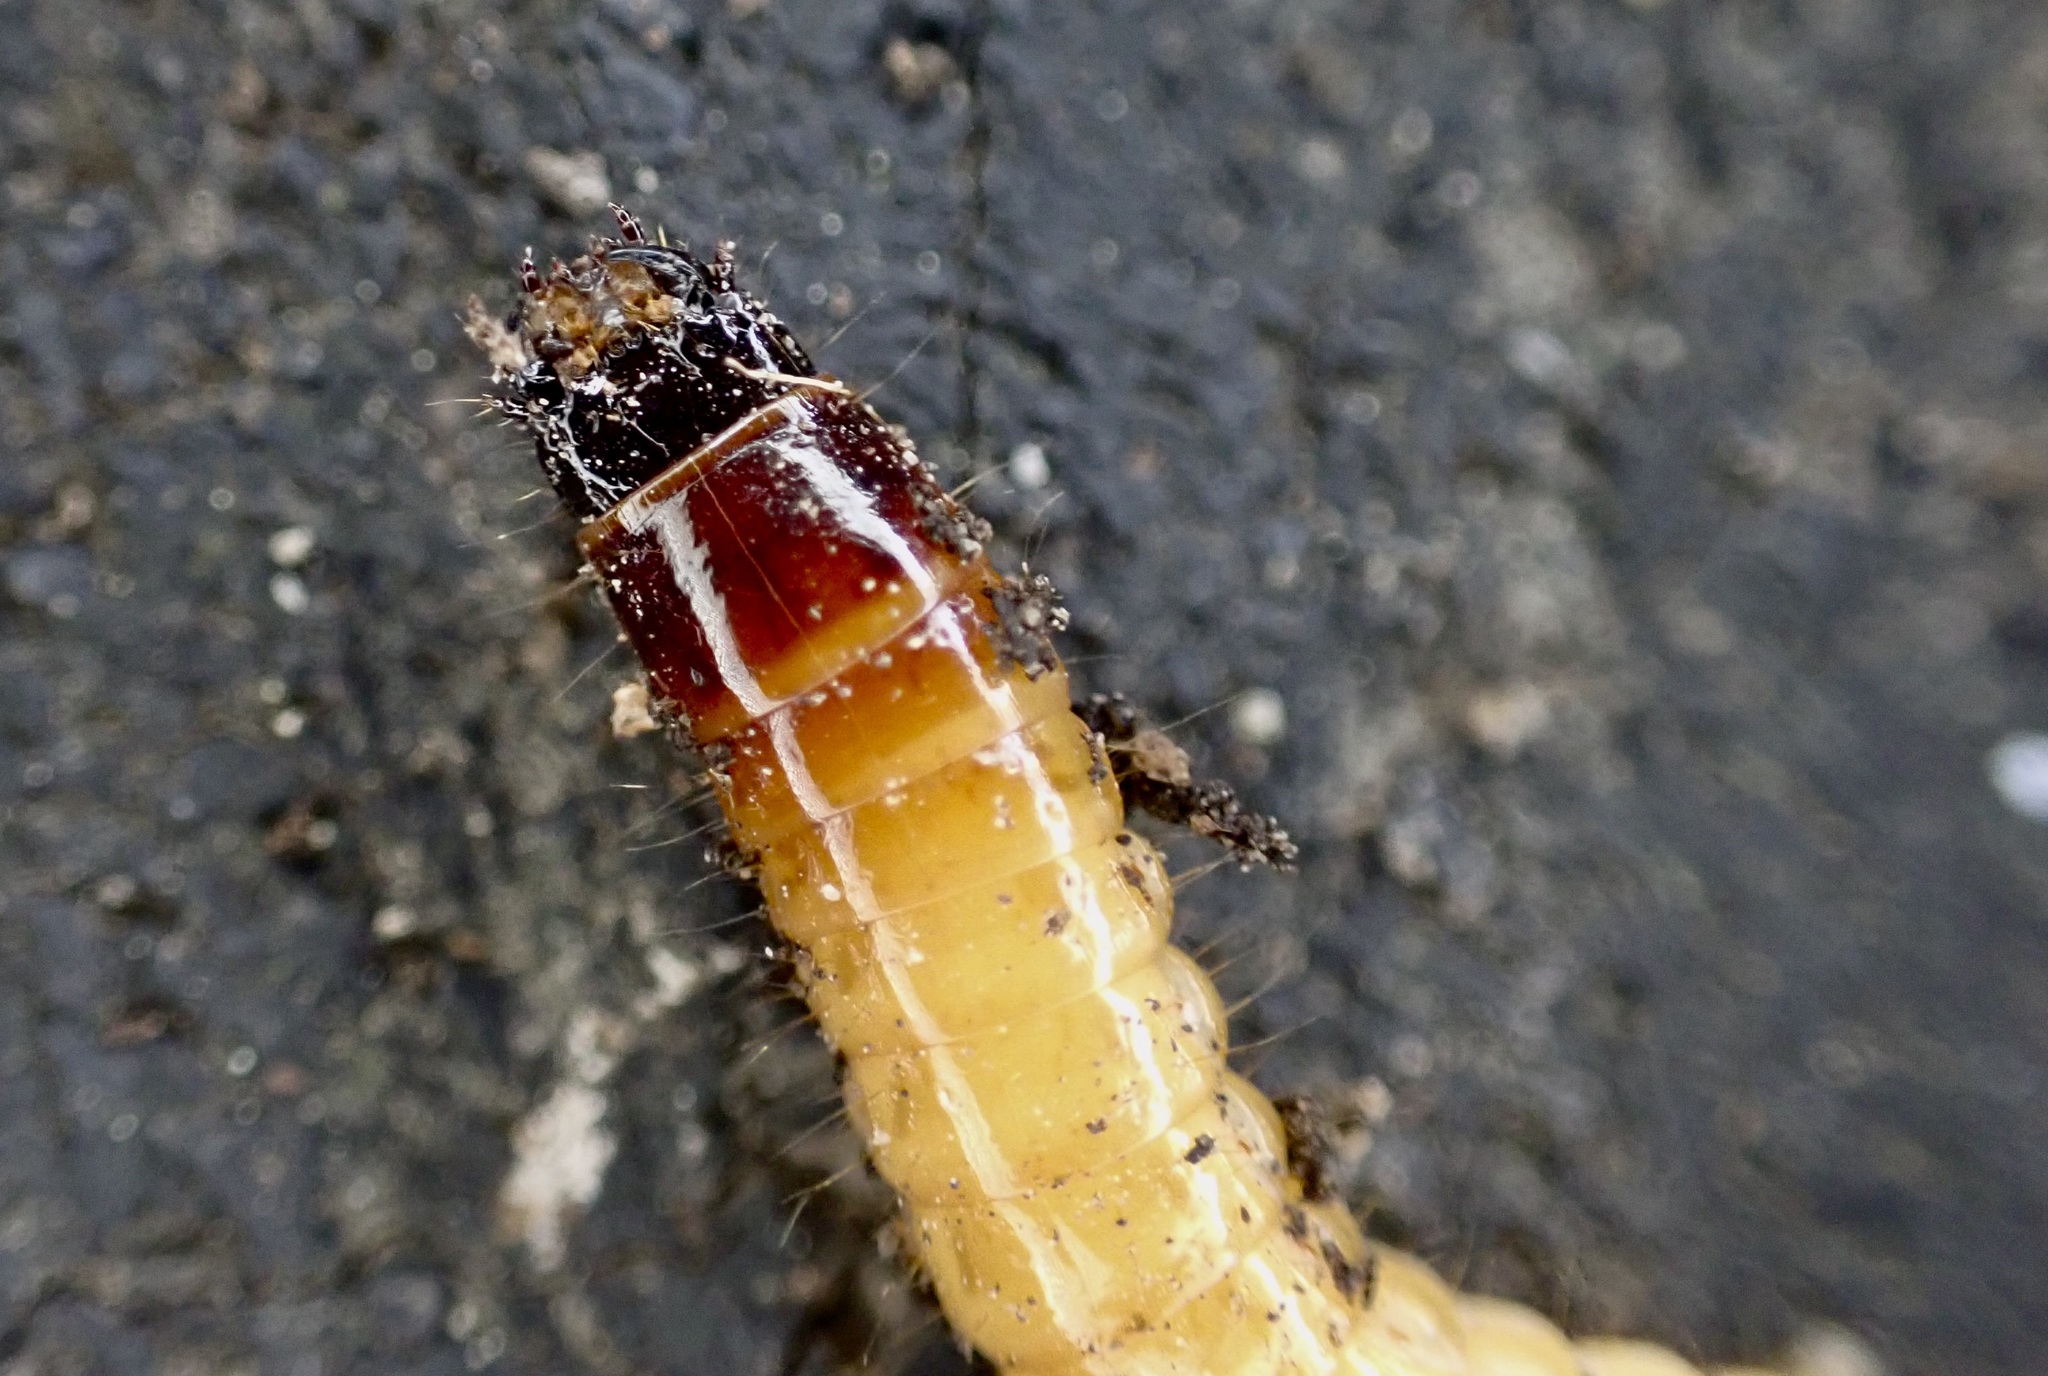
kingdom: Animalia
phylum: Arthropoda
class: Insecta
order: Coleoptera
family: Elateridae
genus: Conoderus
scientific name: Conoderus exsul
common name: Click beetle
